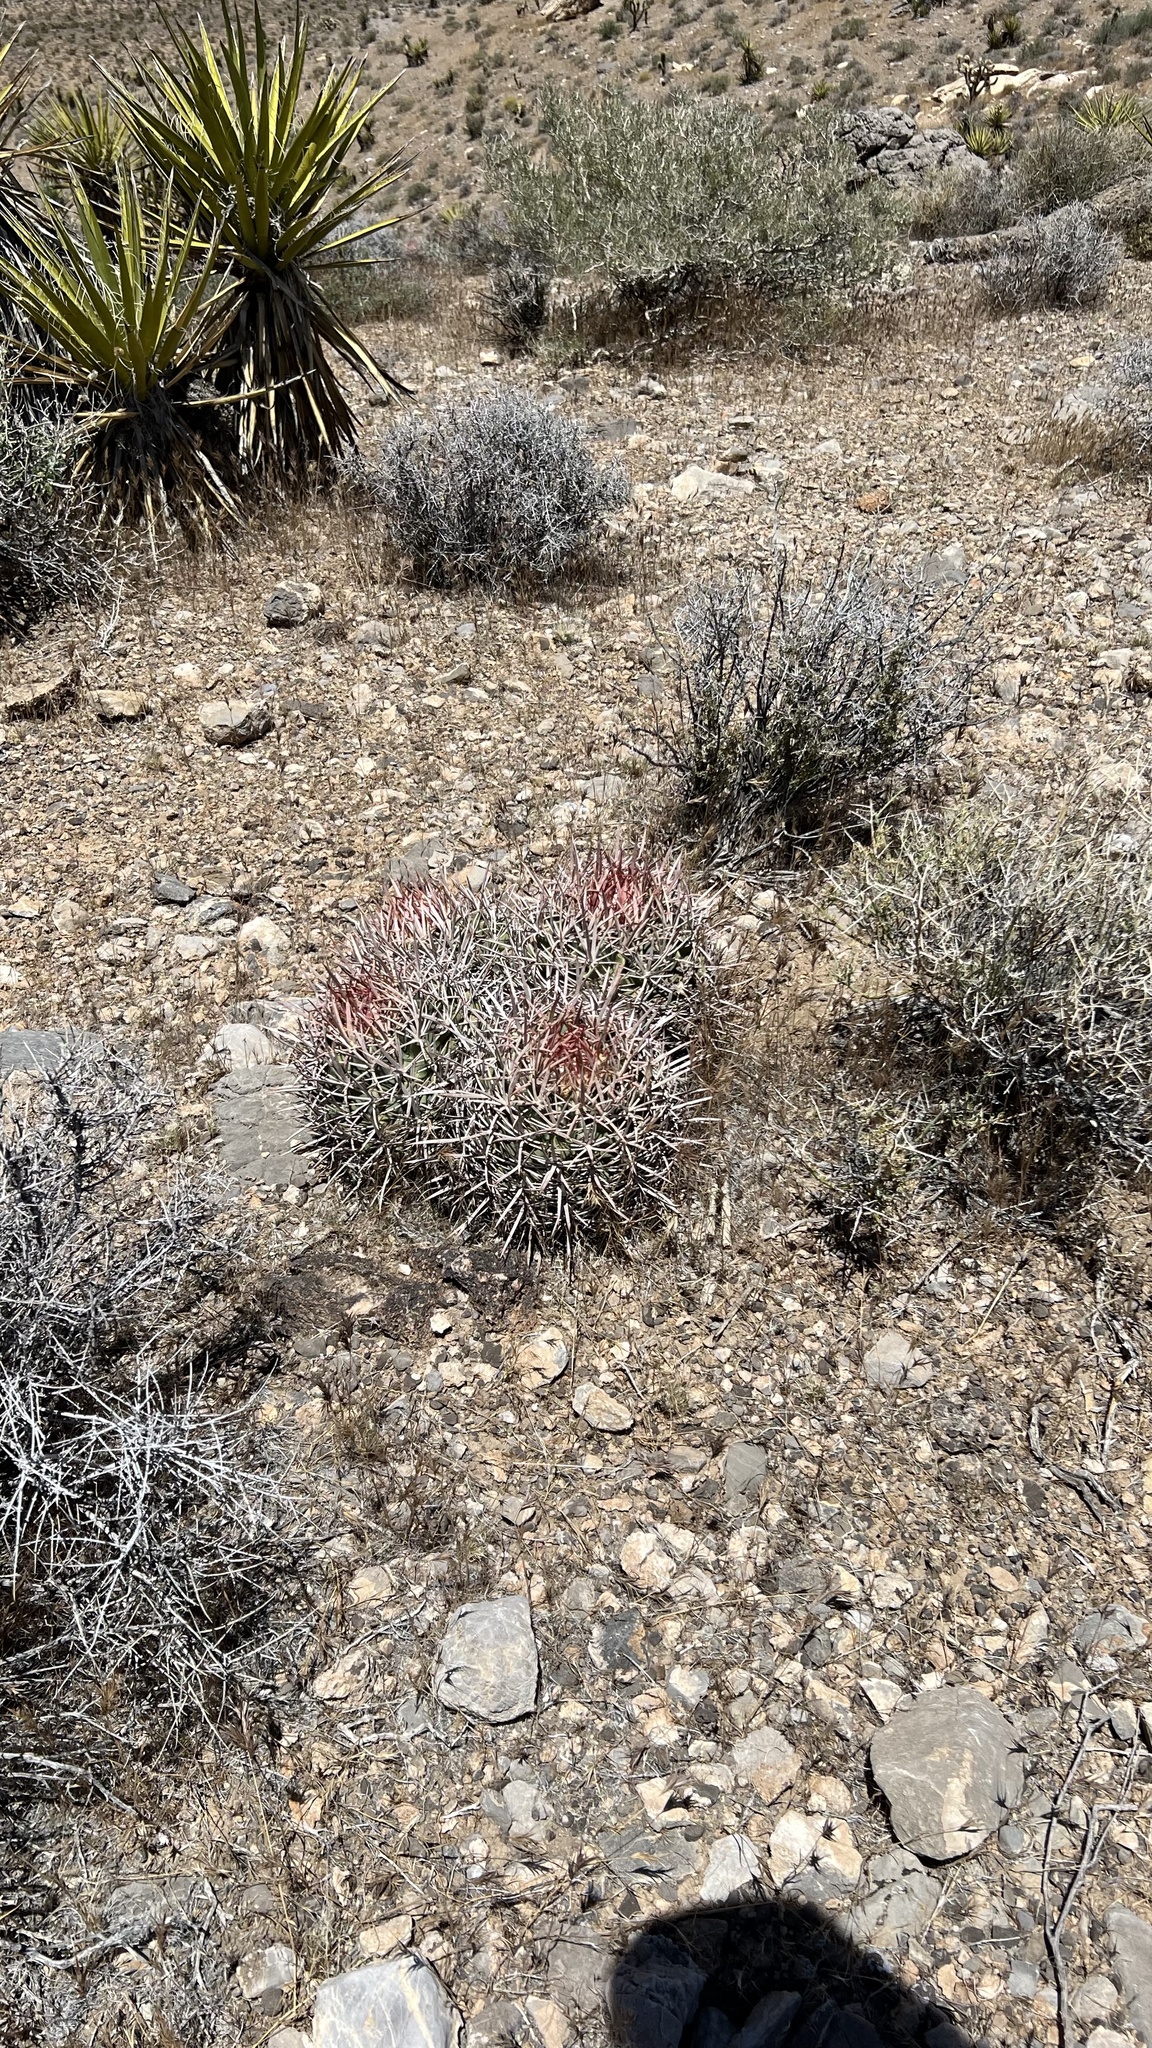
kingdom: Plantae
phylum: Tracheophyta
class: Magnoliopsida
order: Caryophyllales
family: Cactaceae
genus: Echinocactus
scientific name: Echinocactus polycephalus
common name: Cottontop cactus
